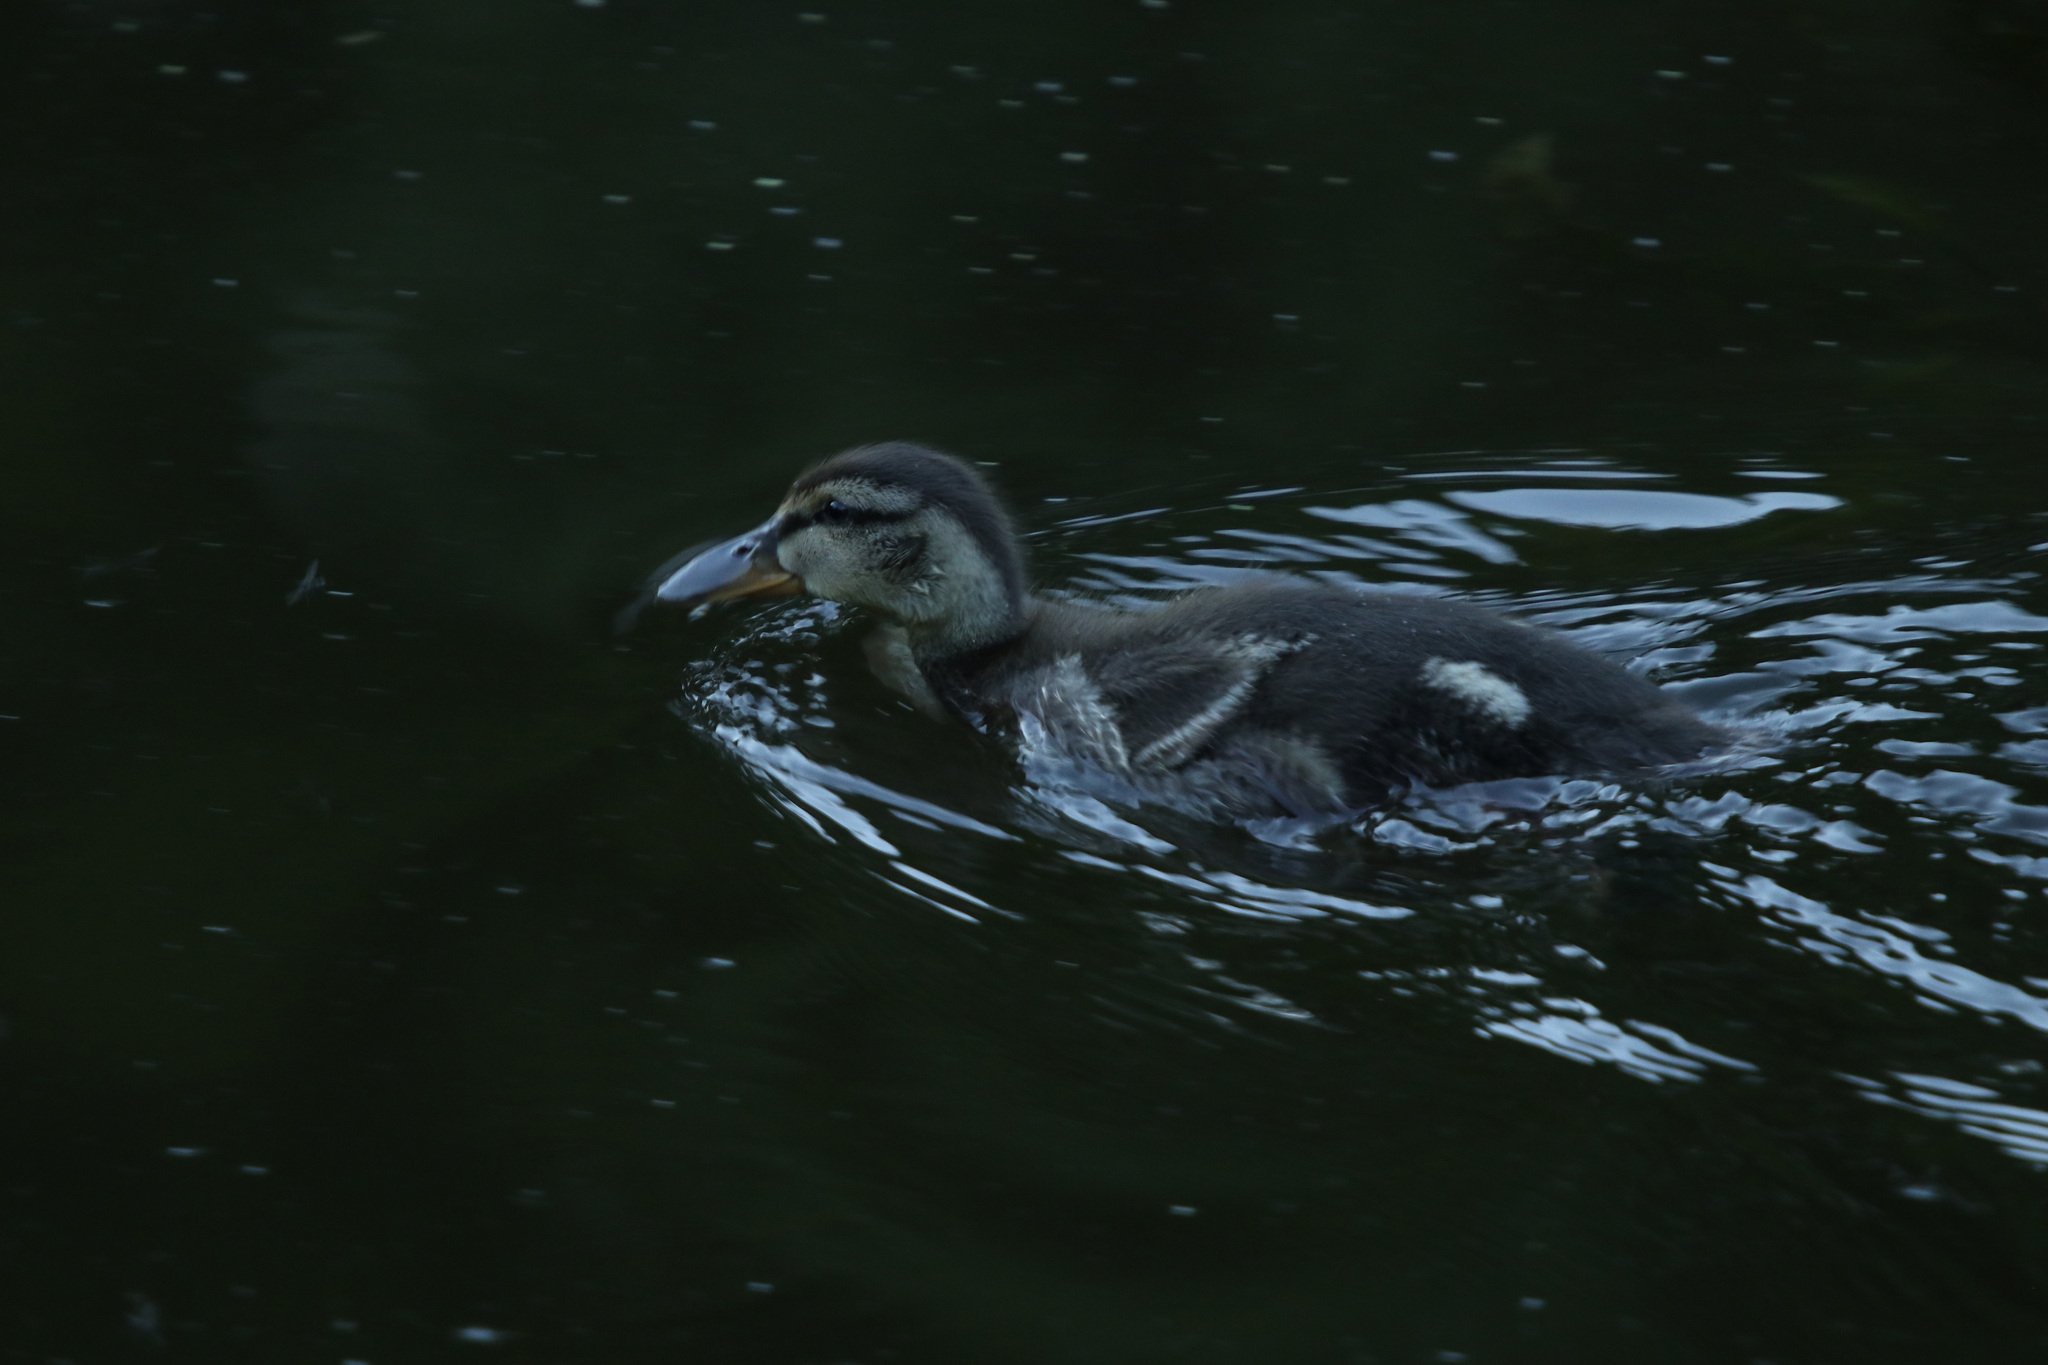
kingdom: Animalia
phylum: Chordata
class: Aves
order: Anseriformes
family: Anatidae
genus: Anas
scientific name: Anas platyrhynchos
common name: Mallard
